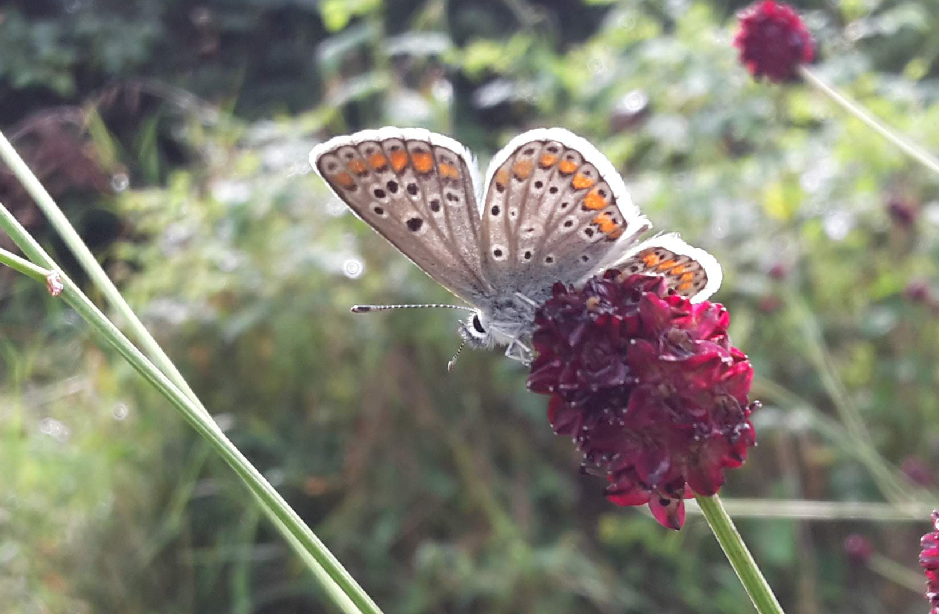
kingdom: Animalia
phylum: Arthropoda
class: Insecta
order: Lepidoptera
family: Lycaenidae
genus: Aricia
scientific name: Aricia agestis
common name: Brown argus
